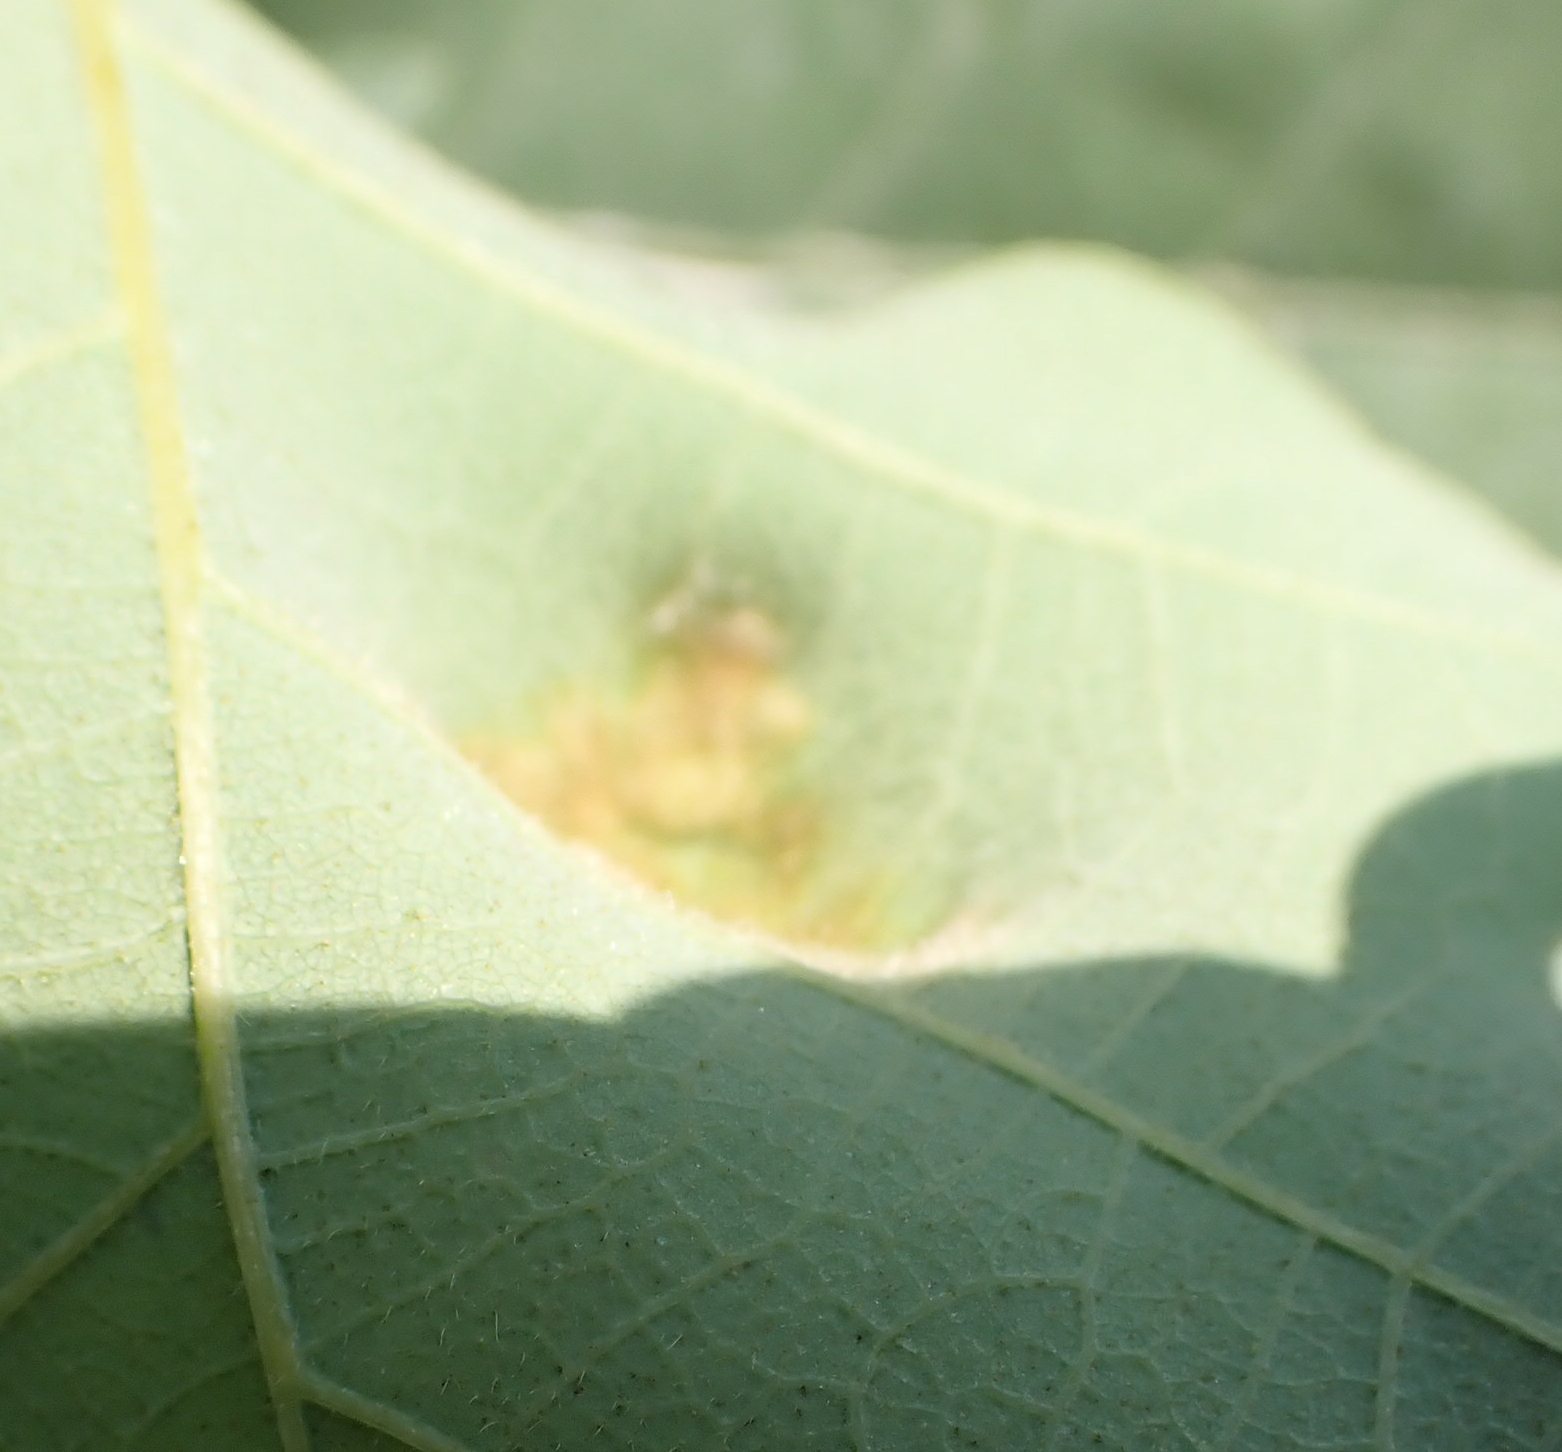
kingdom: Animalia
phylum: Arthropoda
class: Arachnida
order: Trombidiformes
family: Eriophyidae
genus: Aceria
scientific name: Aceria quercina
